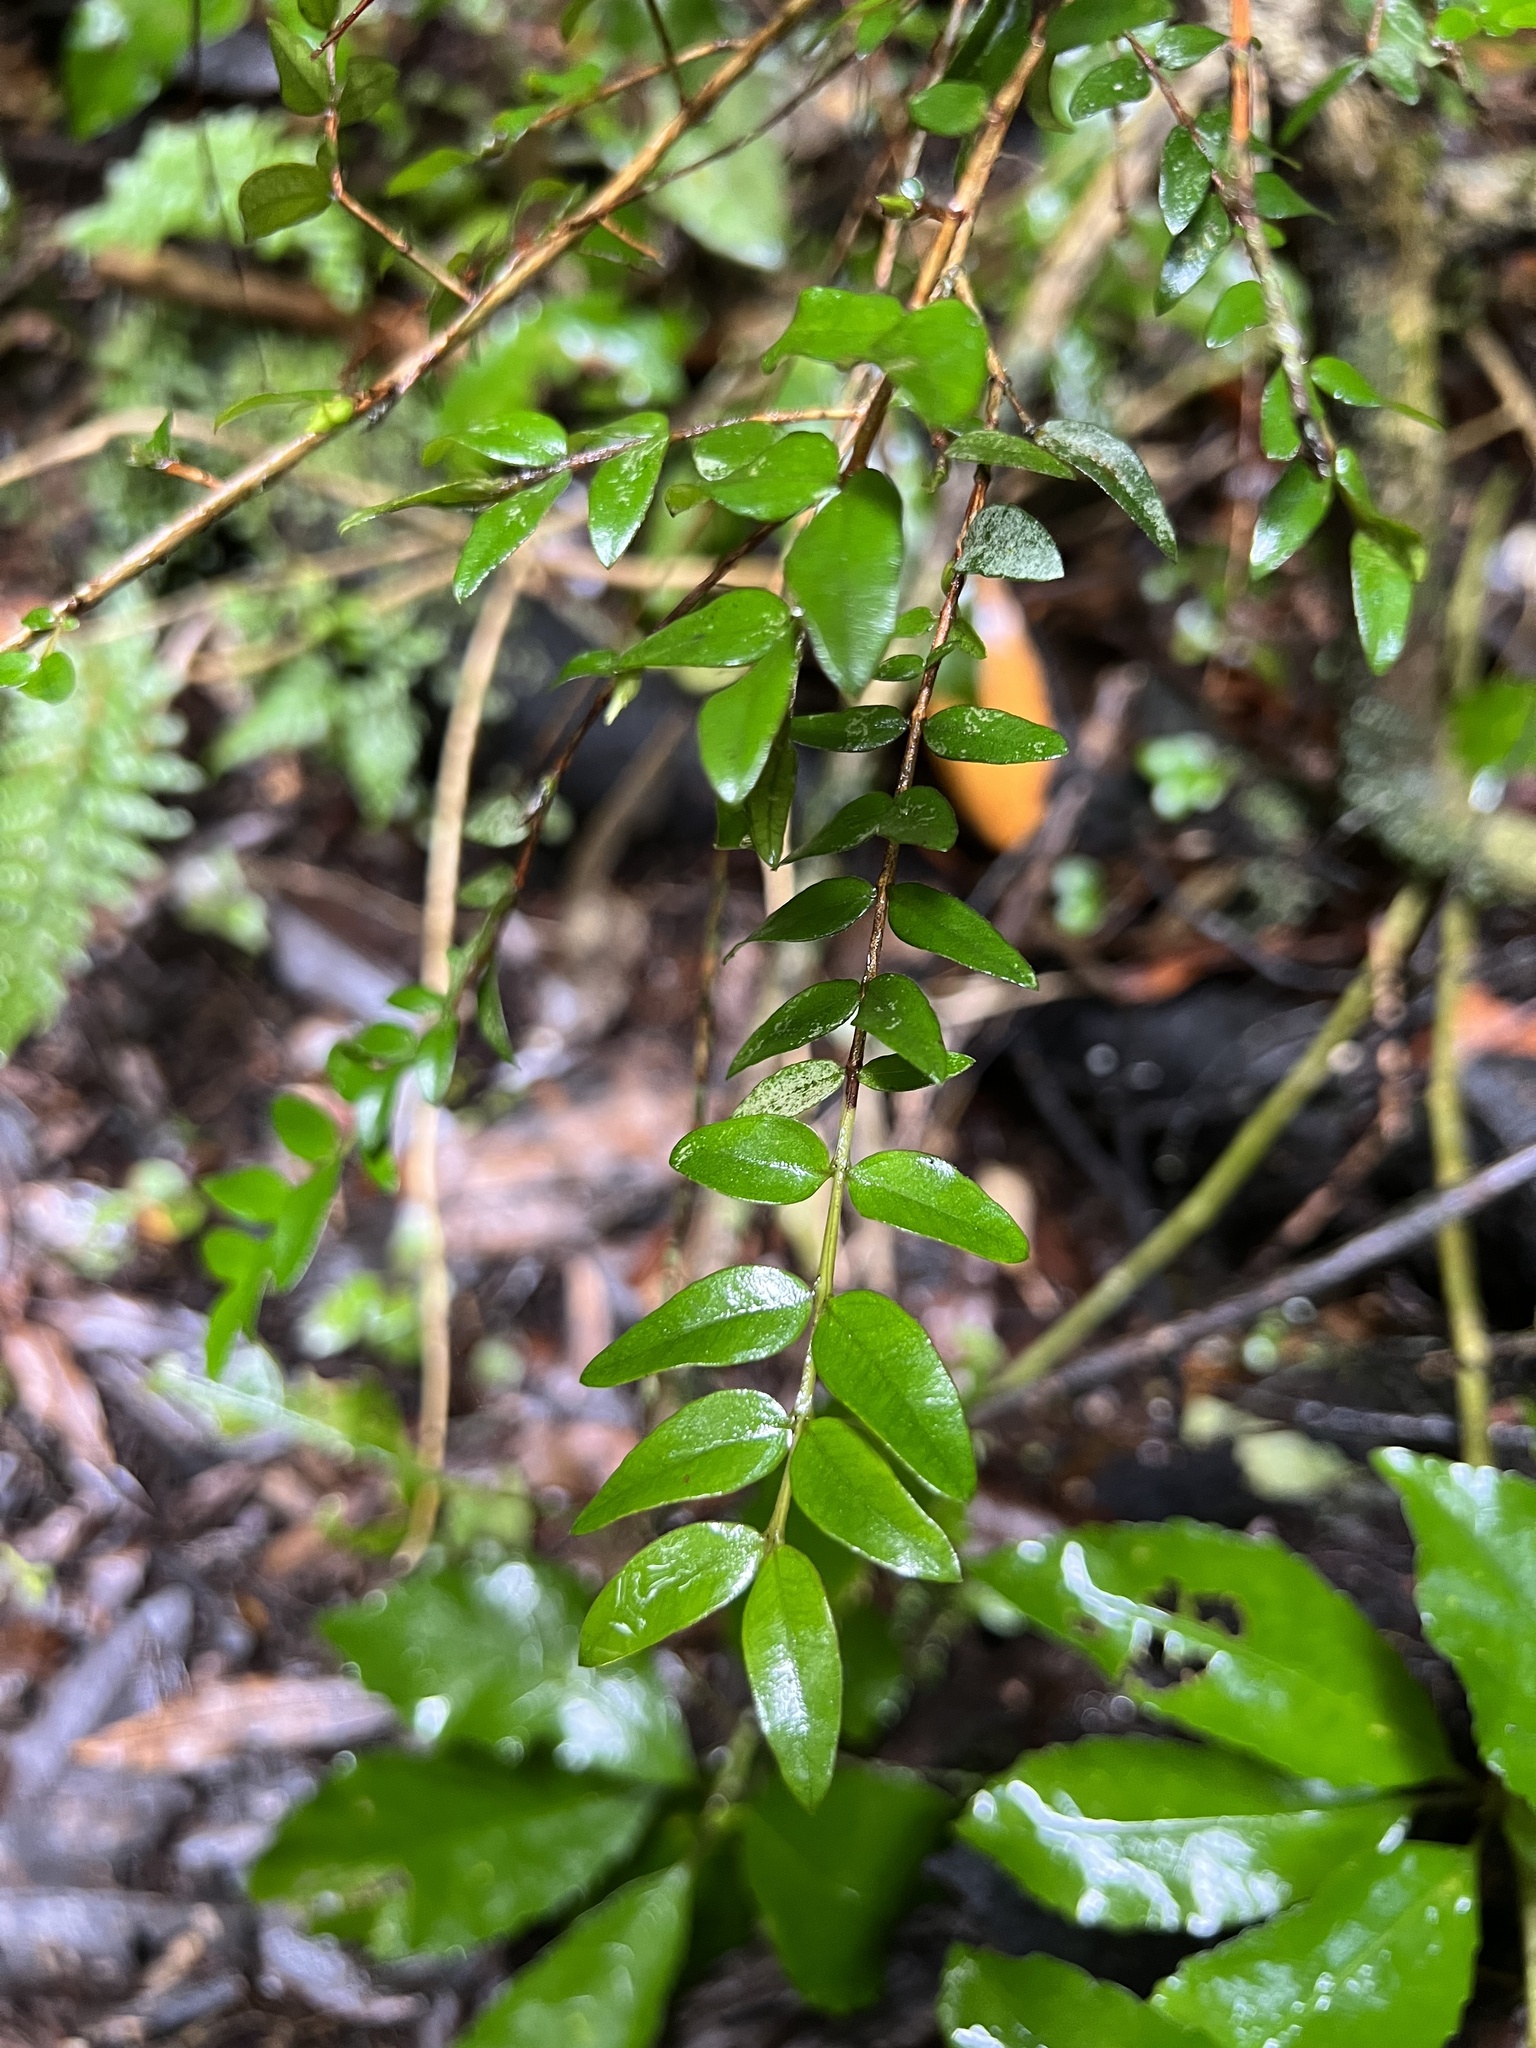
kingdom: Plantae
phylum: Tracheophyta
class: Magnoliopsida
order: Myrtales
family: Myrtaceae
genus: Metrosideros
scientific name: Metrosideros diffusa
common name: Small ratavine
